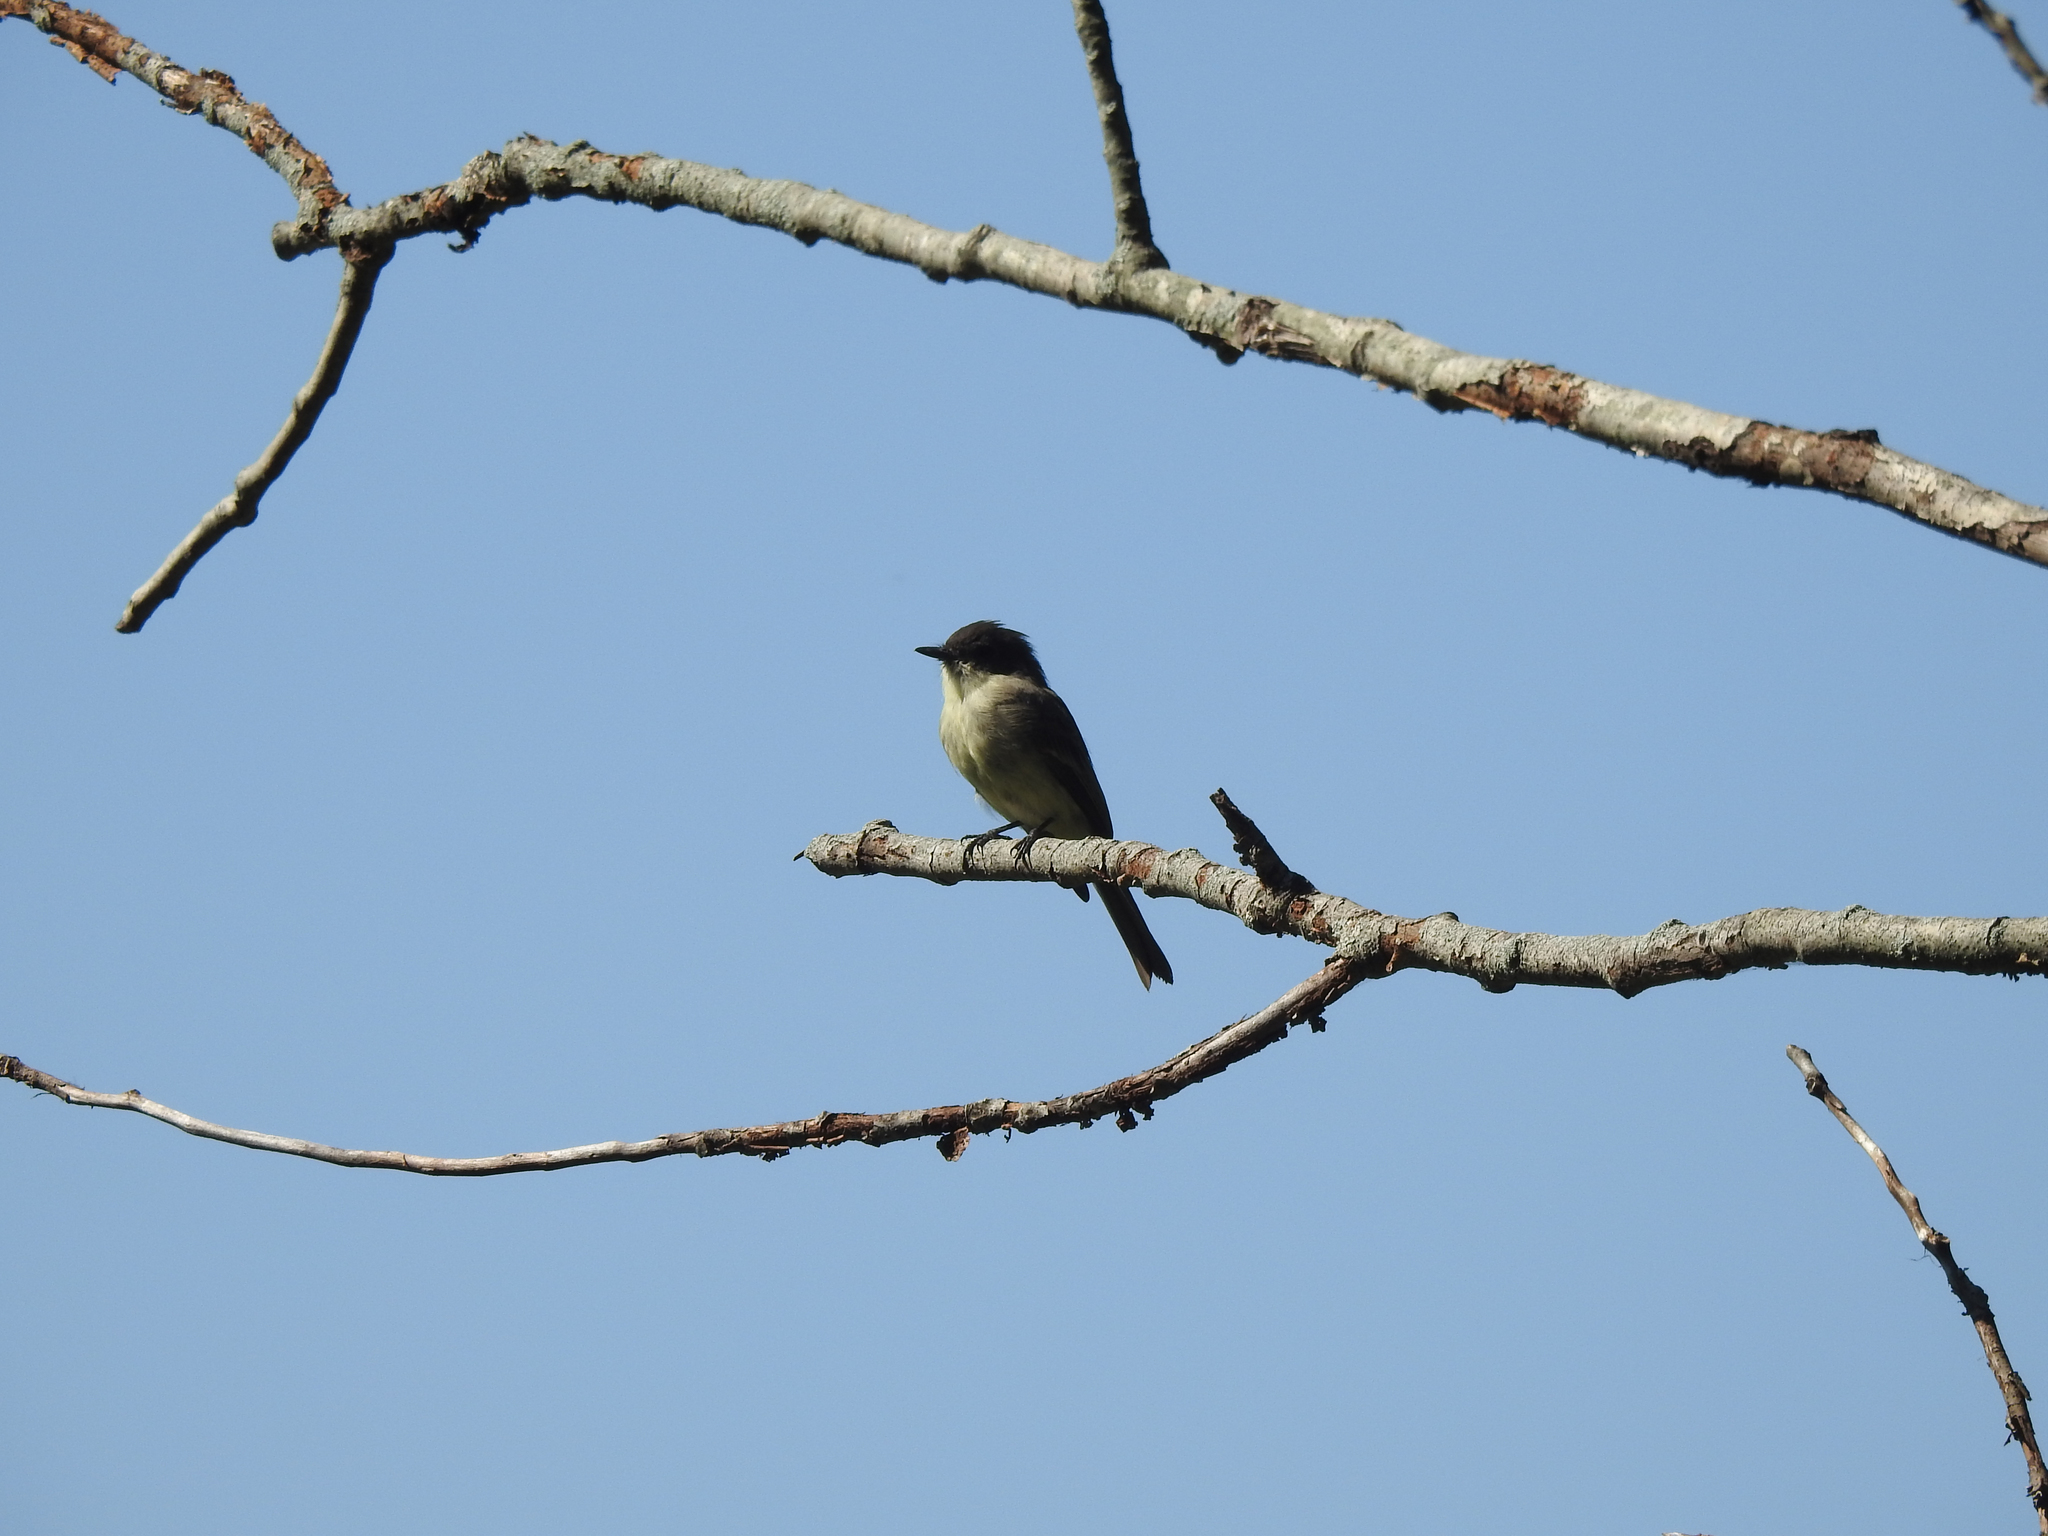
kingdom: Animalia
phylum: Chordata
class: Aves
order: Passeriformes
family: Tyrannidae
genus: Sayornis
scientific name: Sayornis phoebe
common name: Eastern phoebe
